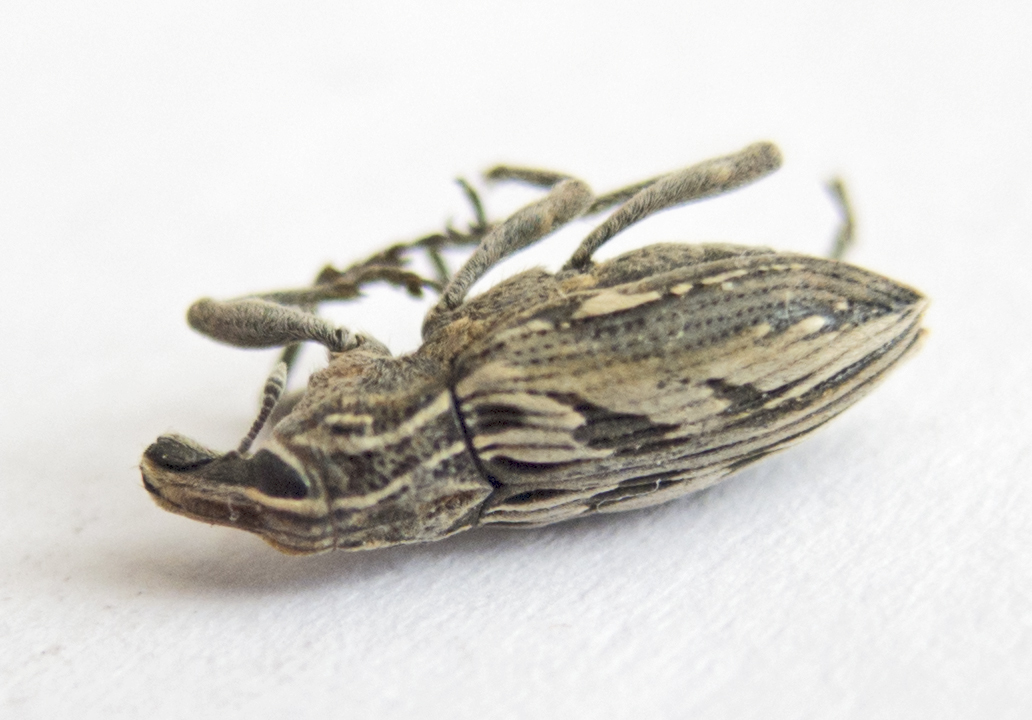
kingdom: Animalia
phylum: Arthropoda
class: Insecta
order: Coleoptera
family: Curculionidae
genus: Coniocleonus
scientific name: Coniocleonus nigrosuturatus
